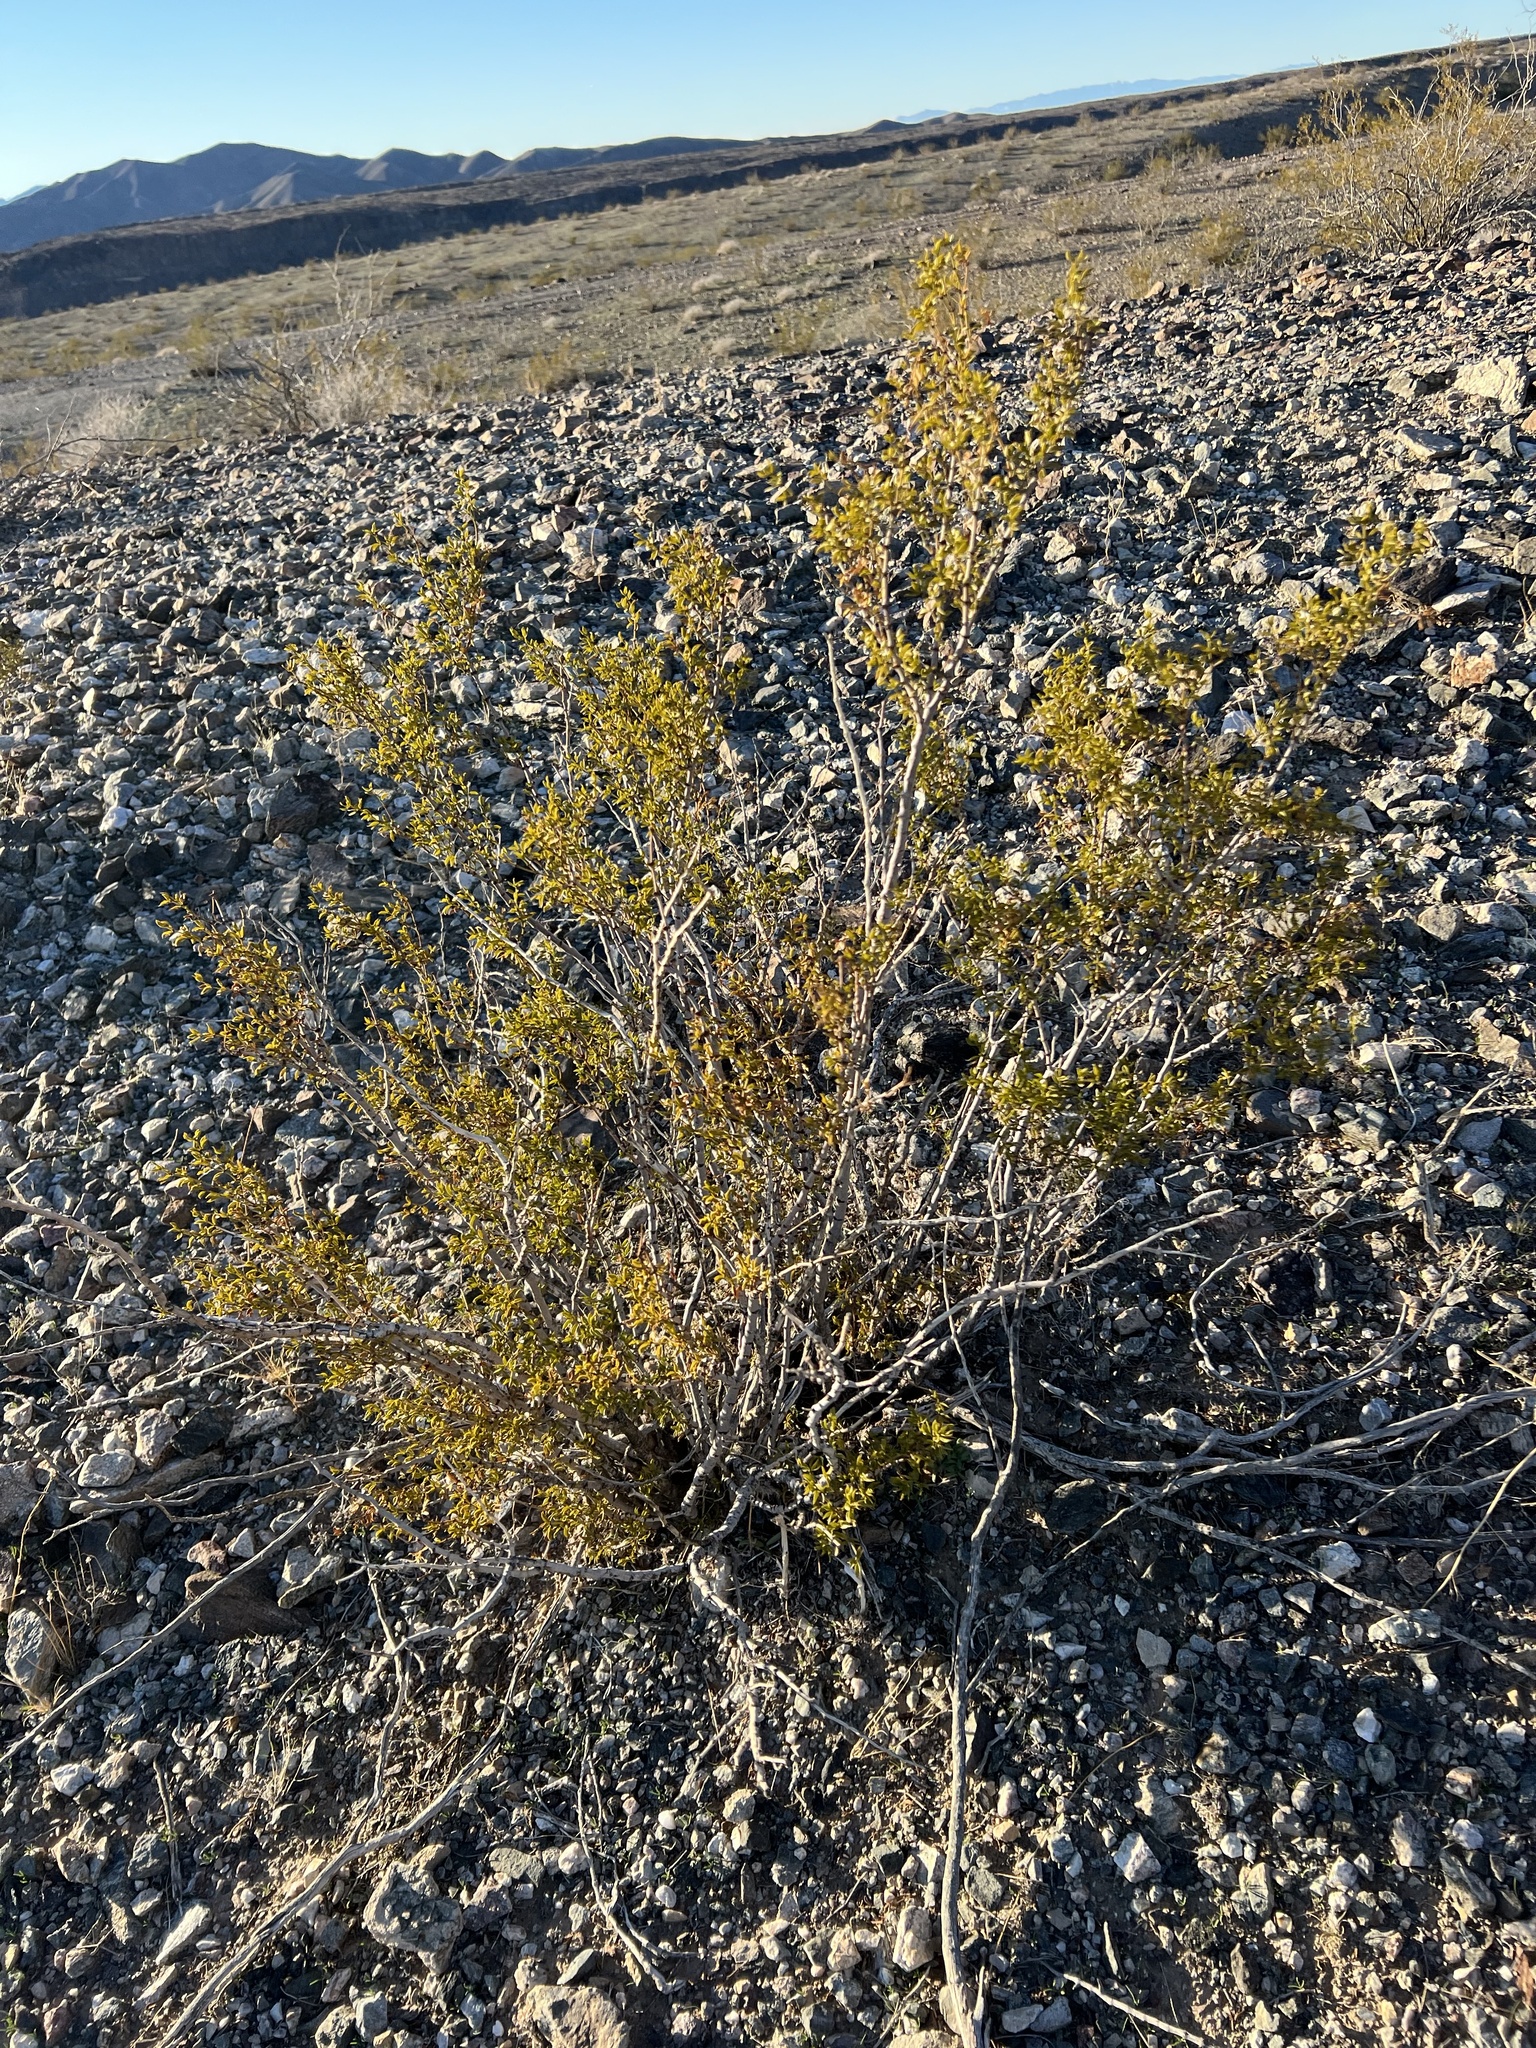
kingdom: Plantae
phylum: Tracheophyta
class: Magnoliopsida
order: Zygophyllales
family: Zygophyllaceae
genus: Larrea
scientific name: Larrea tridentata
